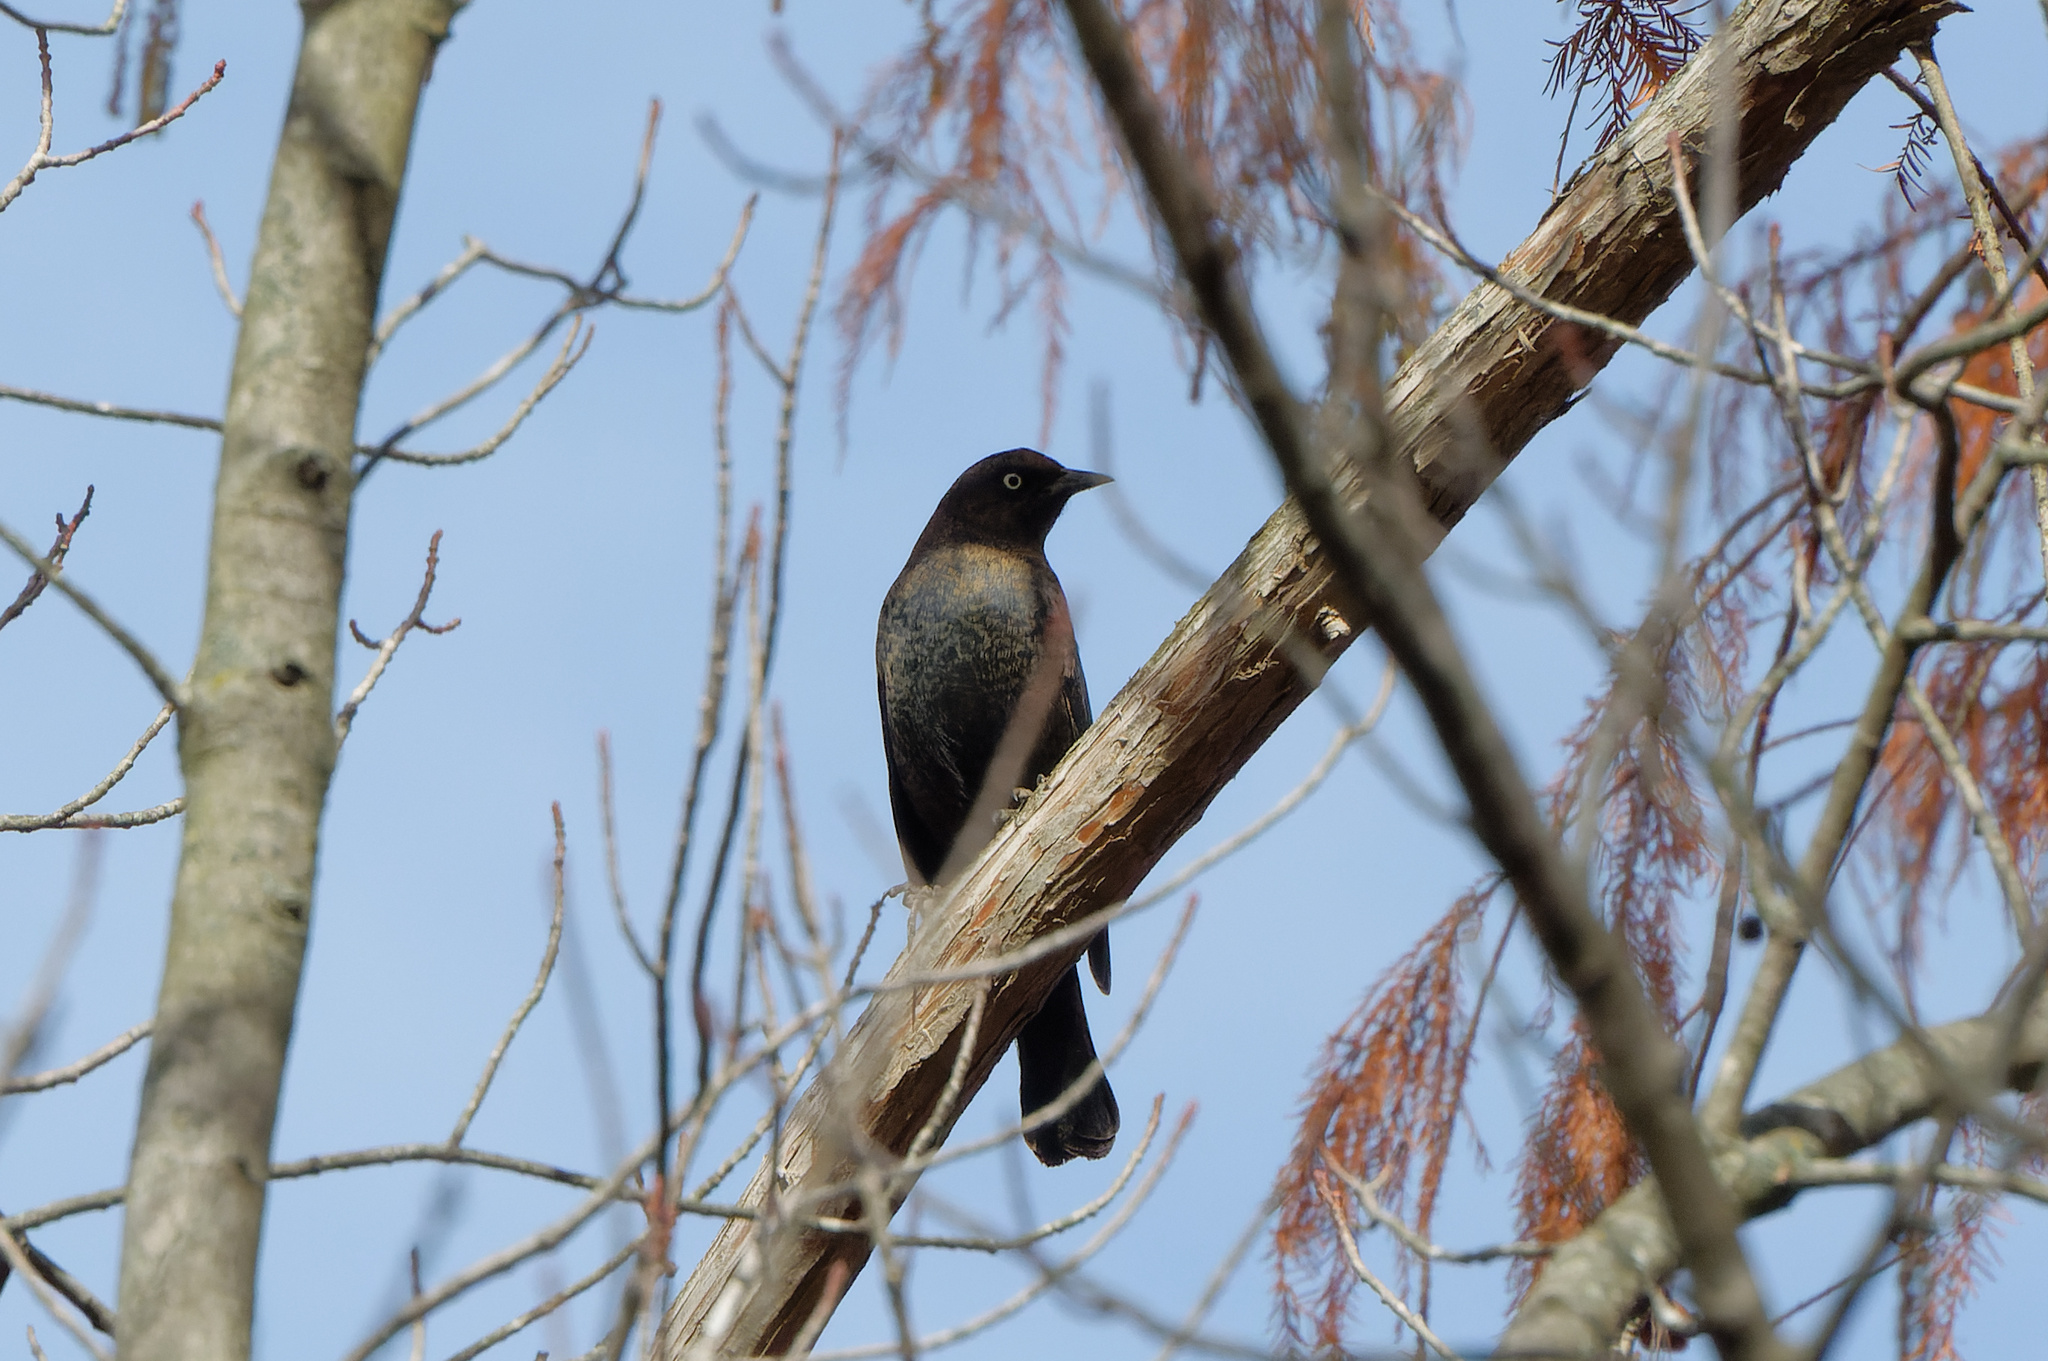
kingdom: Animalia
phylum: Chordata
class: Aves
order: Passeriformes
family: Icteridae
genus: Euphagus
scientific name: Euphagus carolinus
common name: Rusty blackbird
